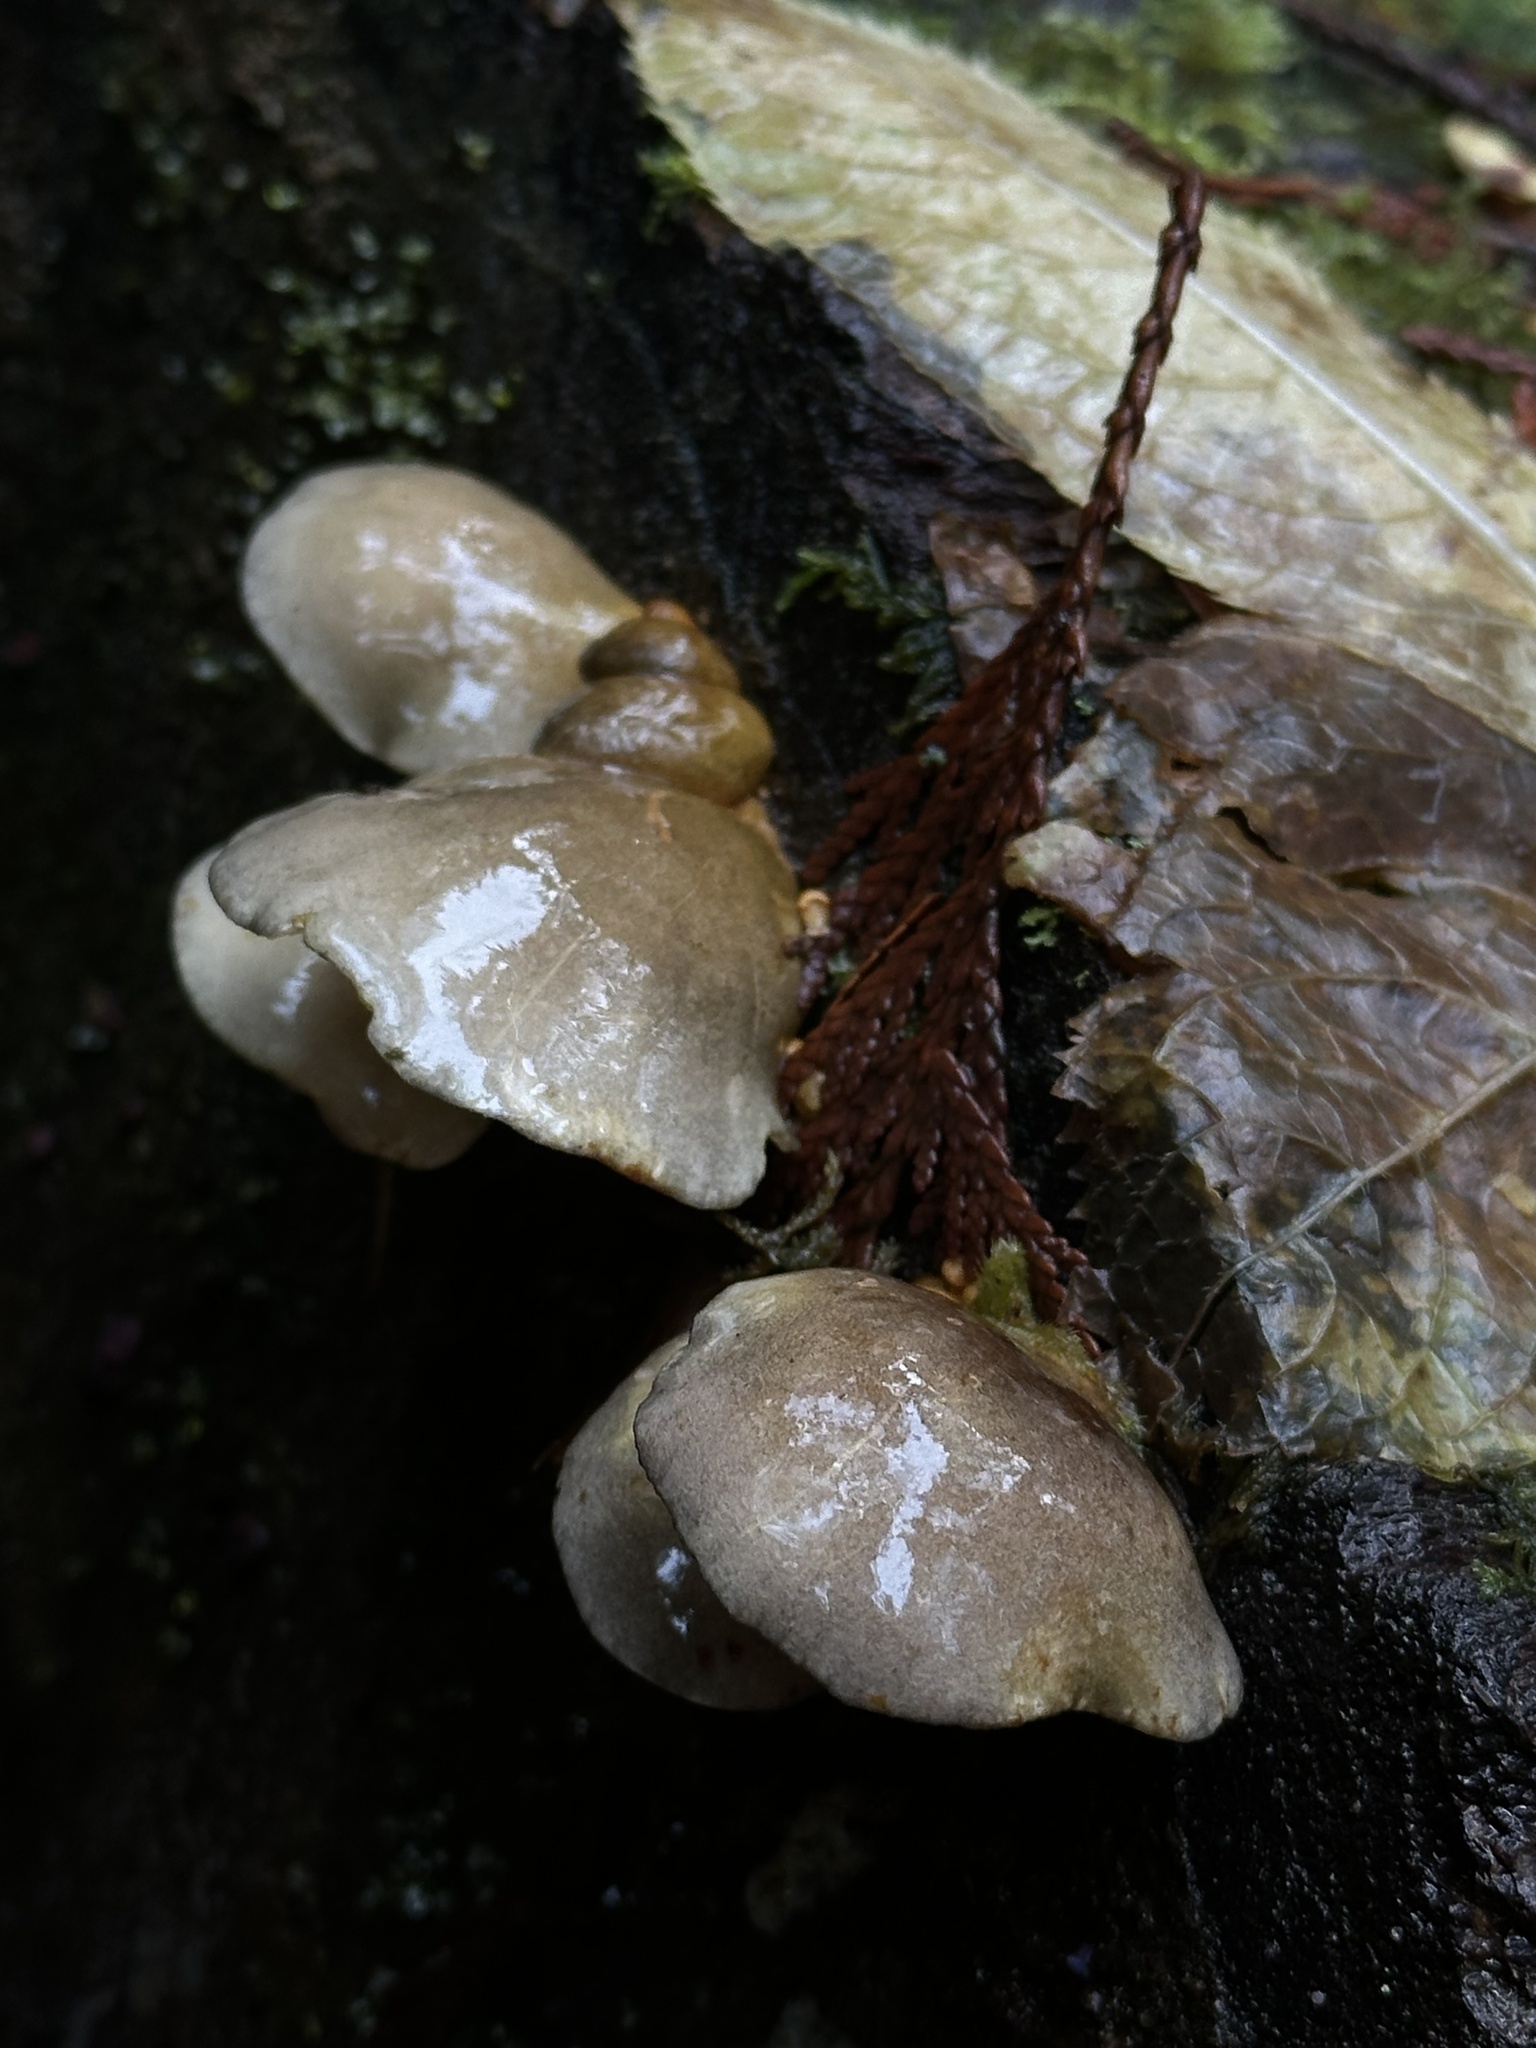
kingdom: Fungi
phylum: Basidiomycota
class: Agaricomycetes
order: Agaricales
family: Sarcomyxaceae
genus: Sarcomyxa
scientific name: Sarcomyxa serotina
